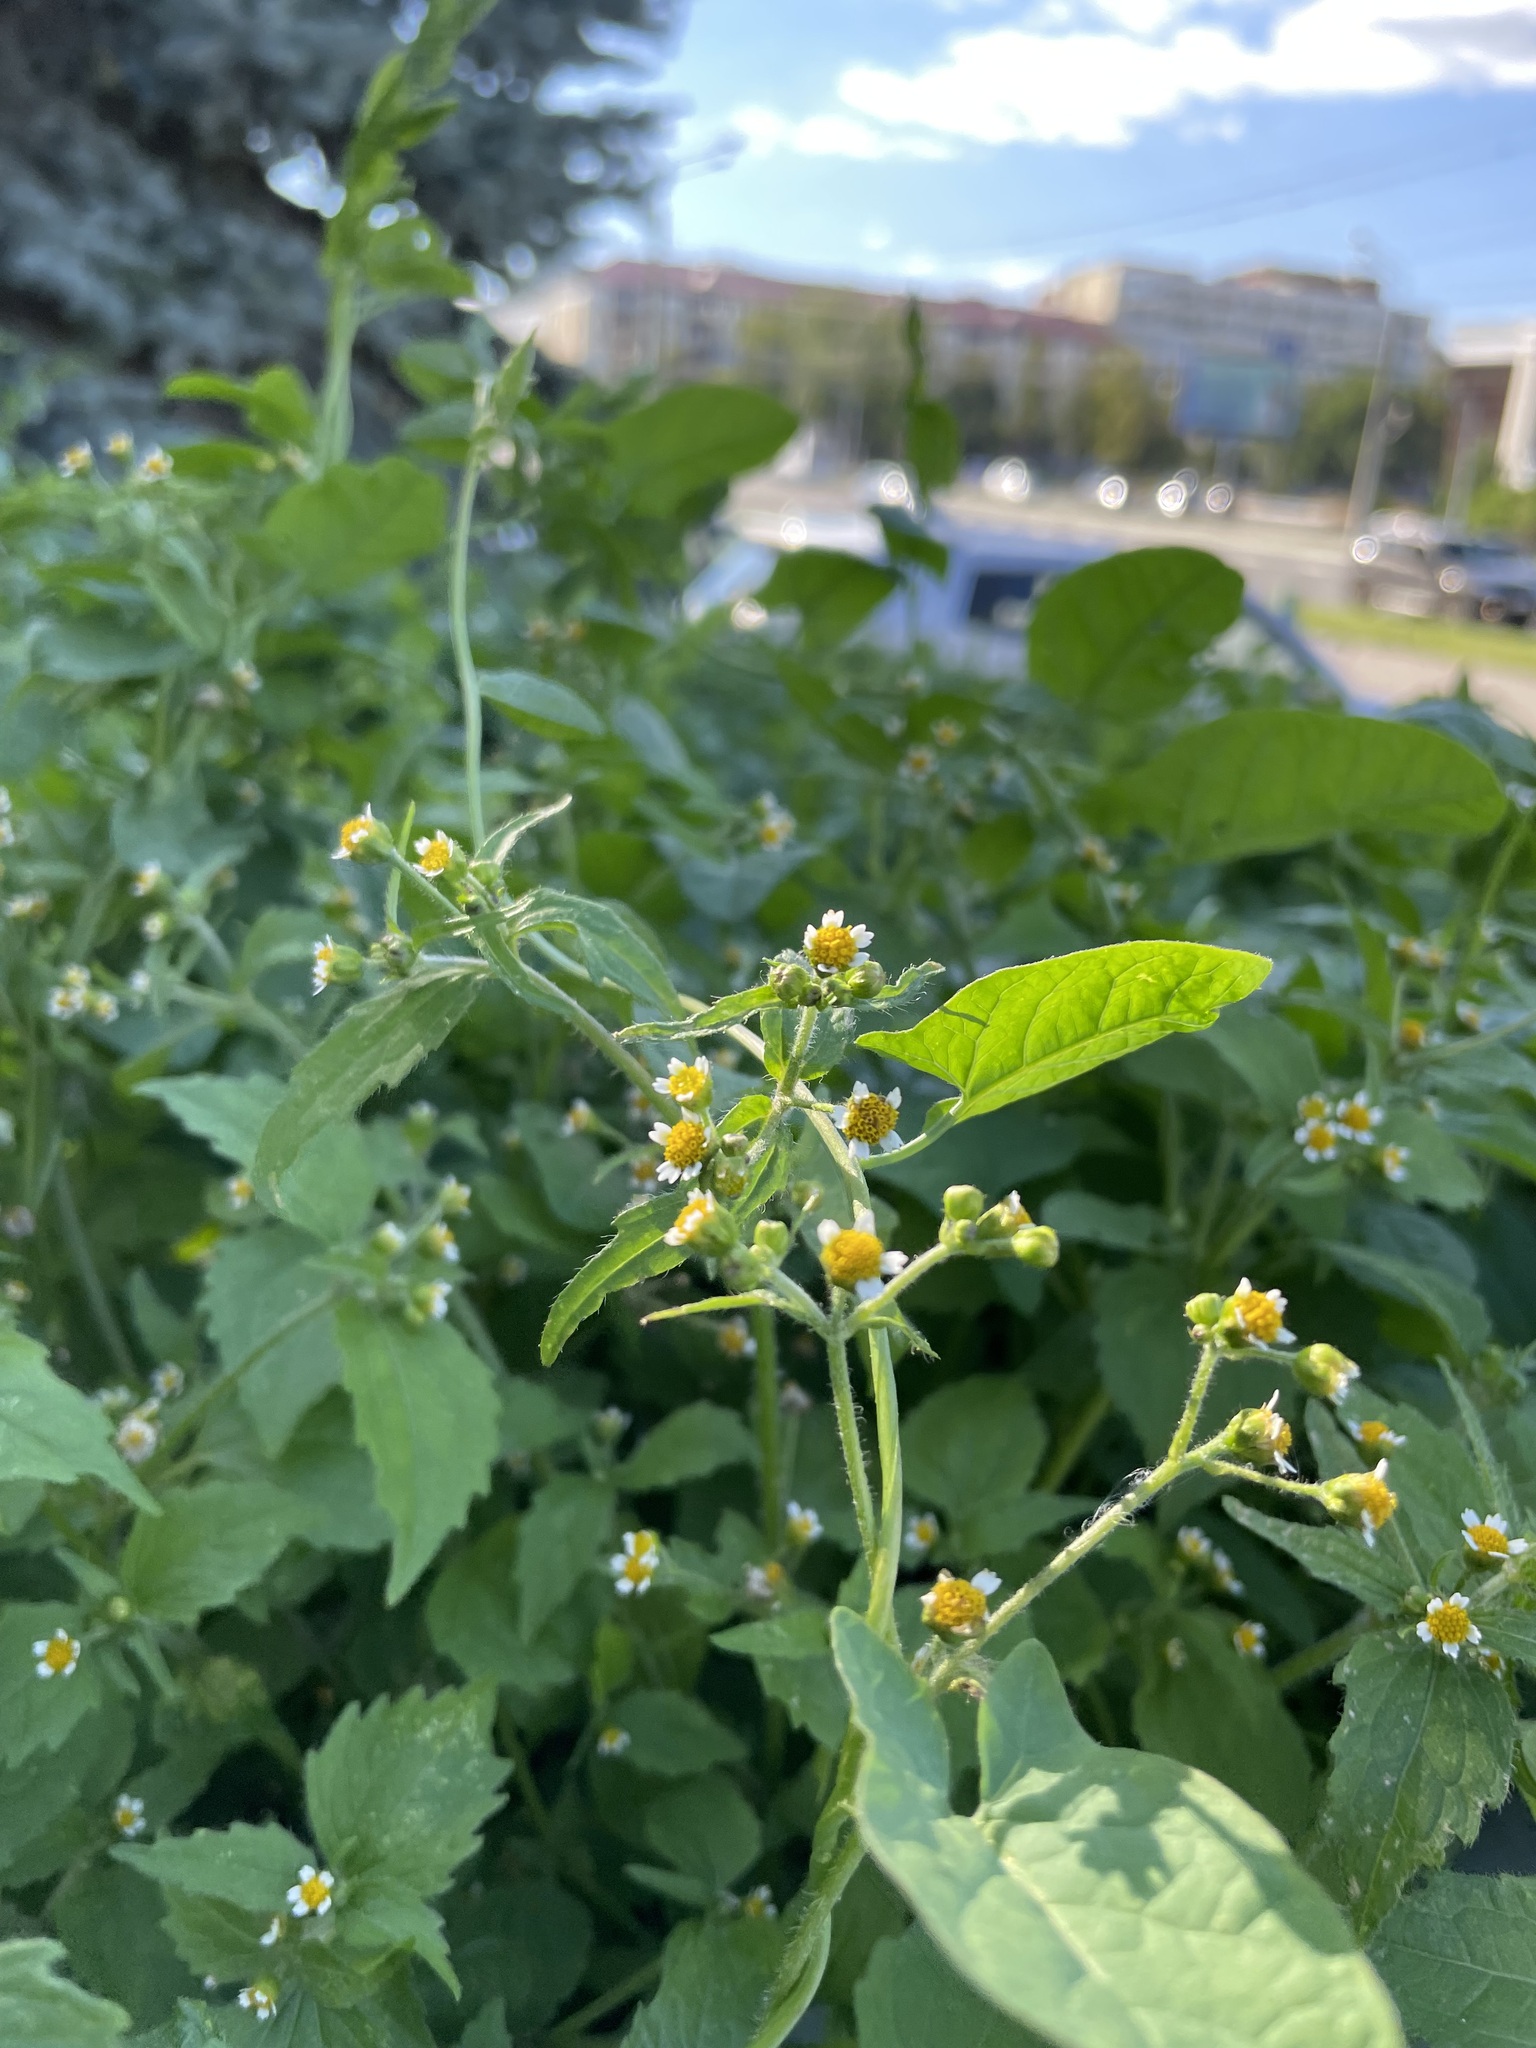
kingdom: Plantae
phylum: Tracheophyta
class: Magnoliopsida
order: Asterales
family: Asteraceae
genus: Galinsoga
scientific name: Galinsoga quadriradiata
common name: Shaggy soldier
